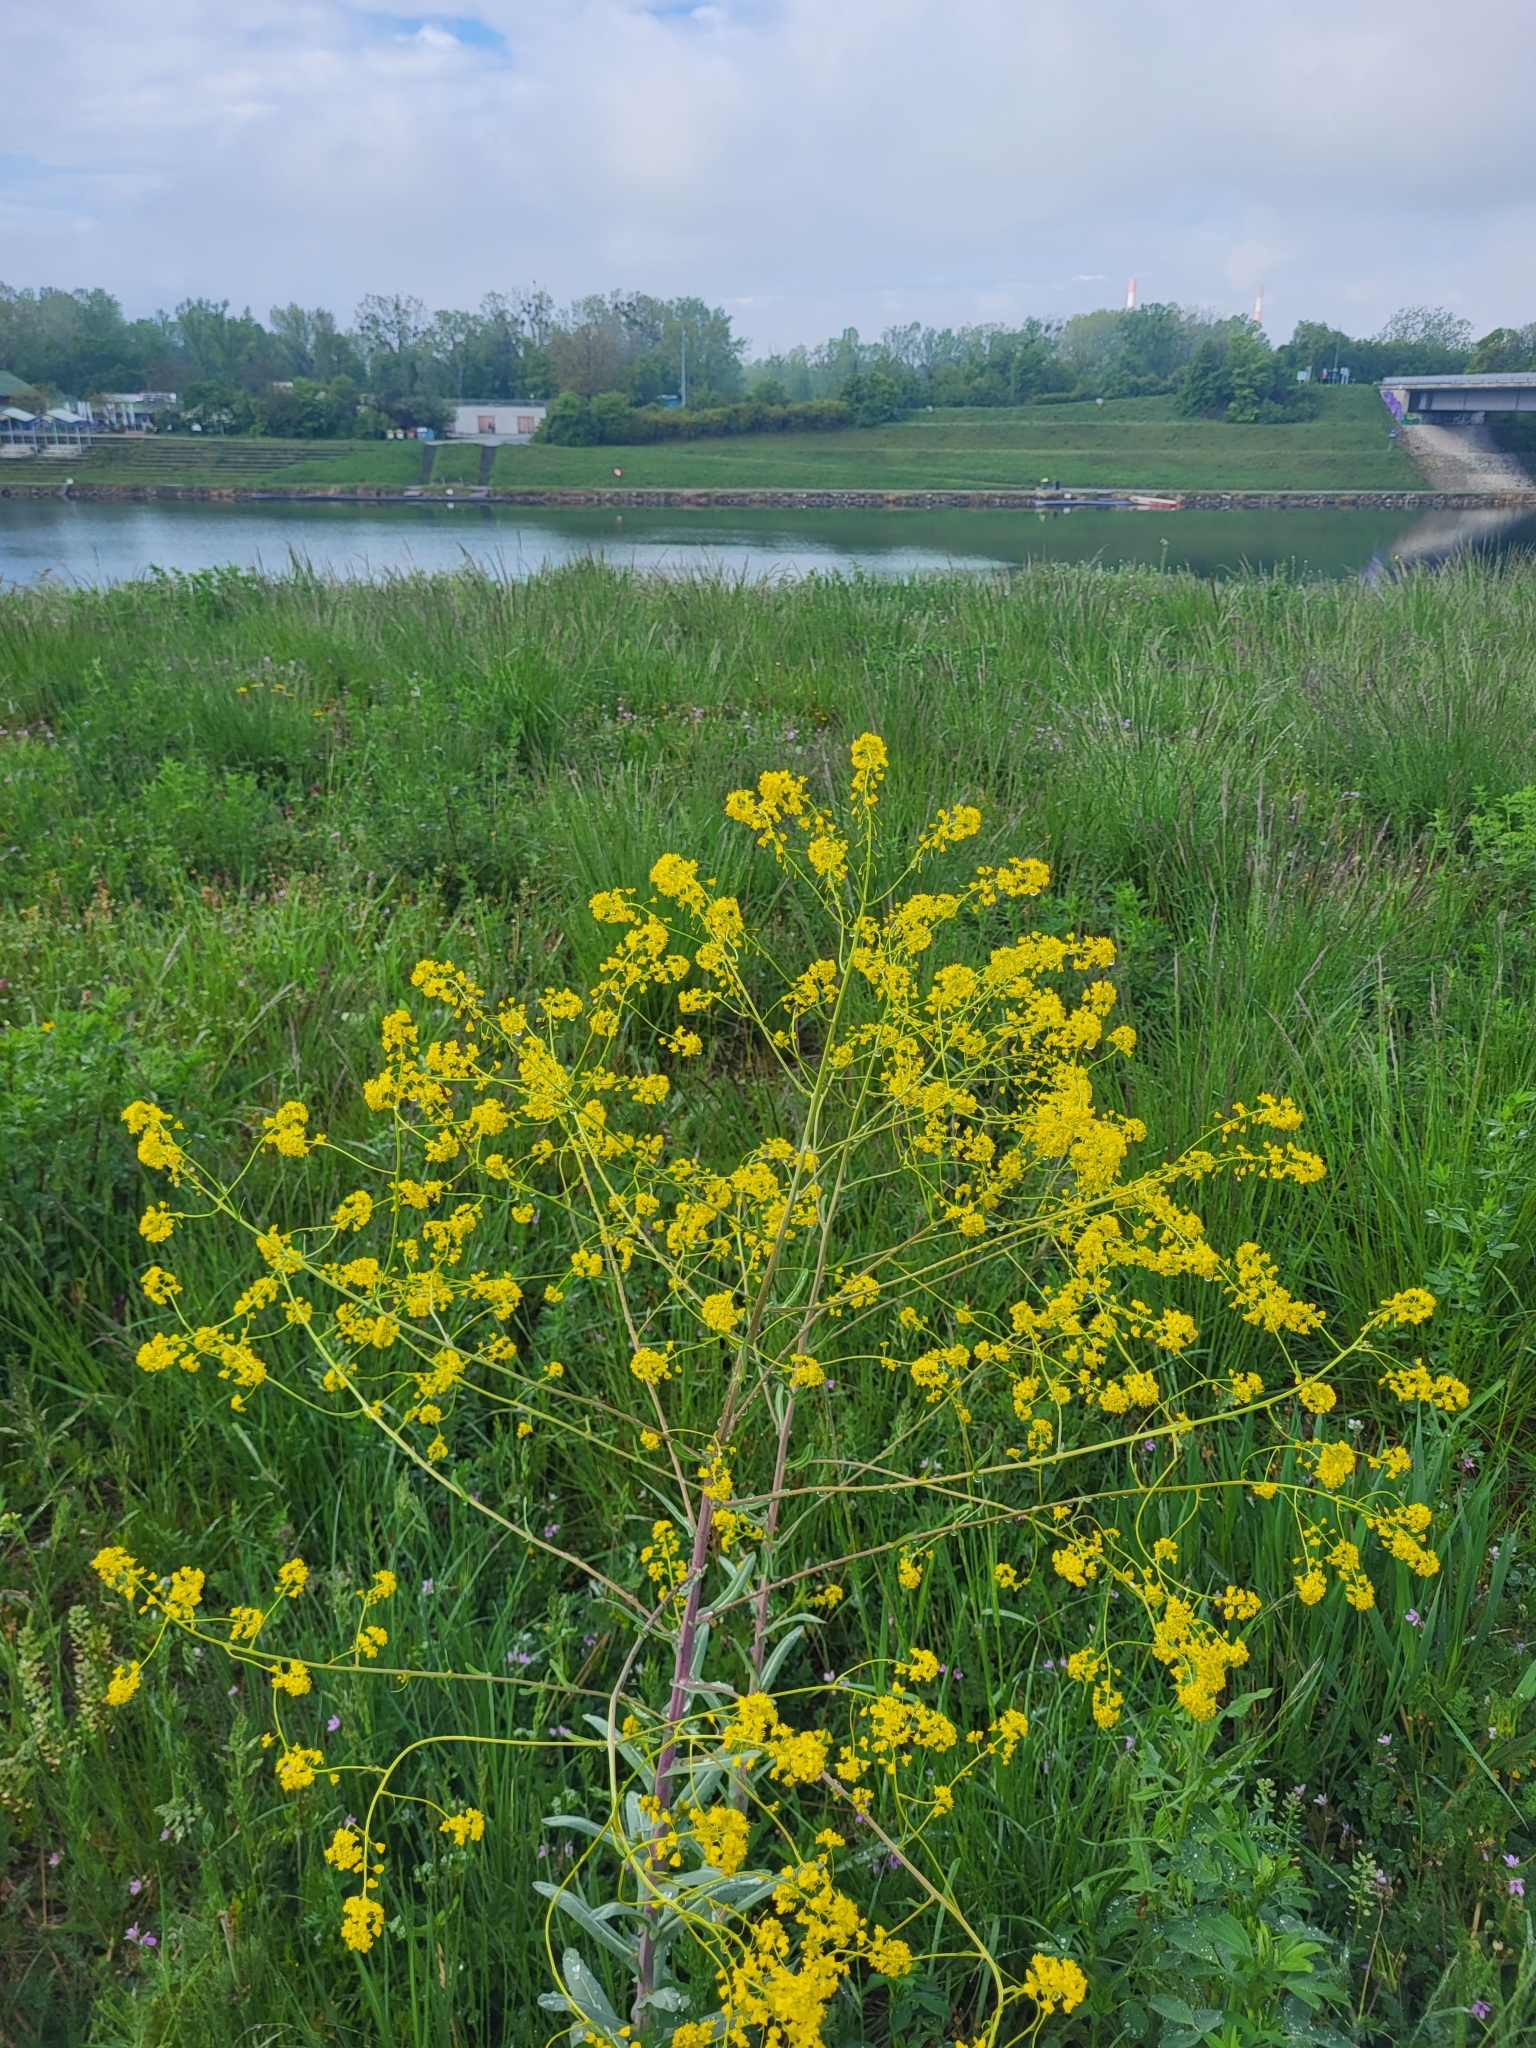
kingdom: Plantae
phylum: Tracheophyta
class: Magnoliopsida
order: Brassicales
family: Brassicaceae
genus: Isatis
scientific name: Isatis tinctoria
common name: Woad
